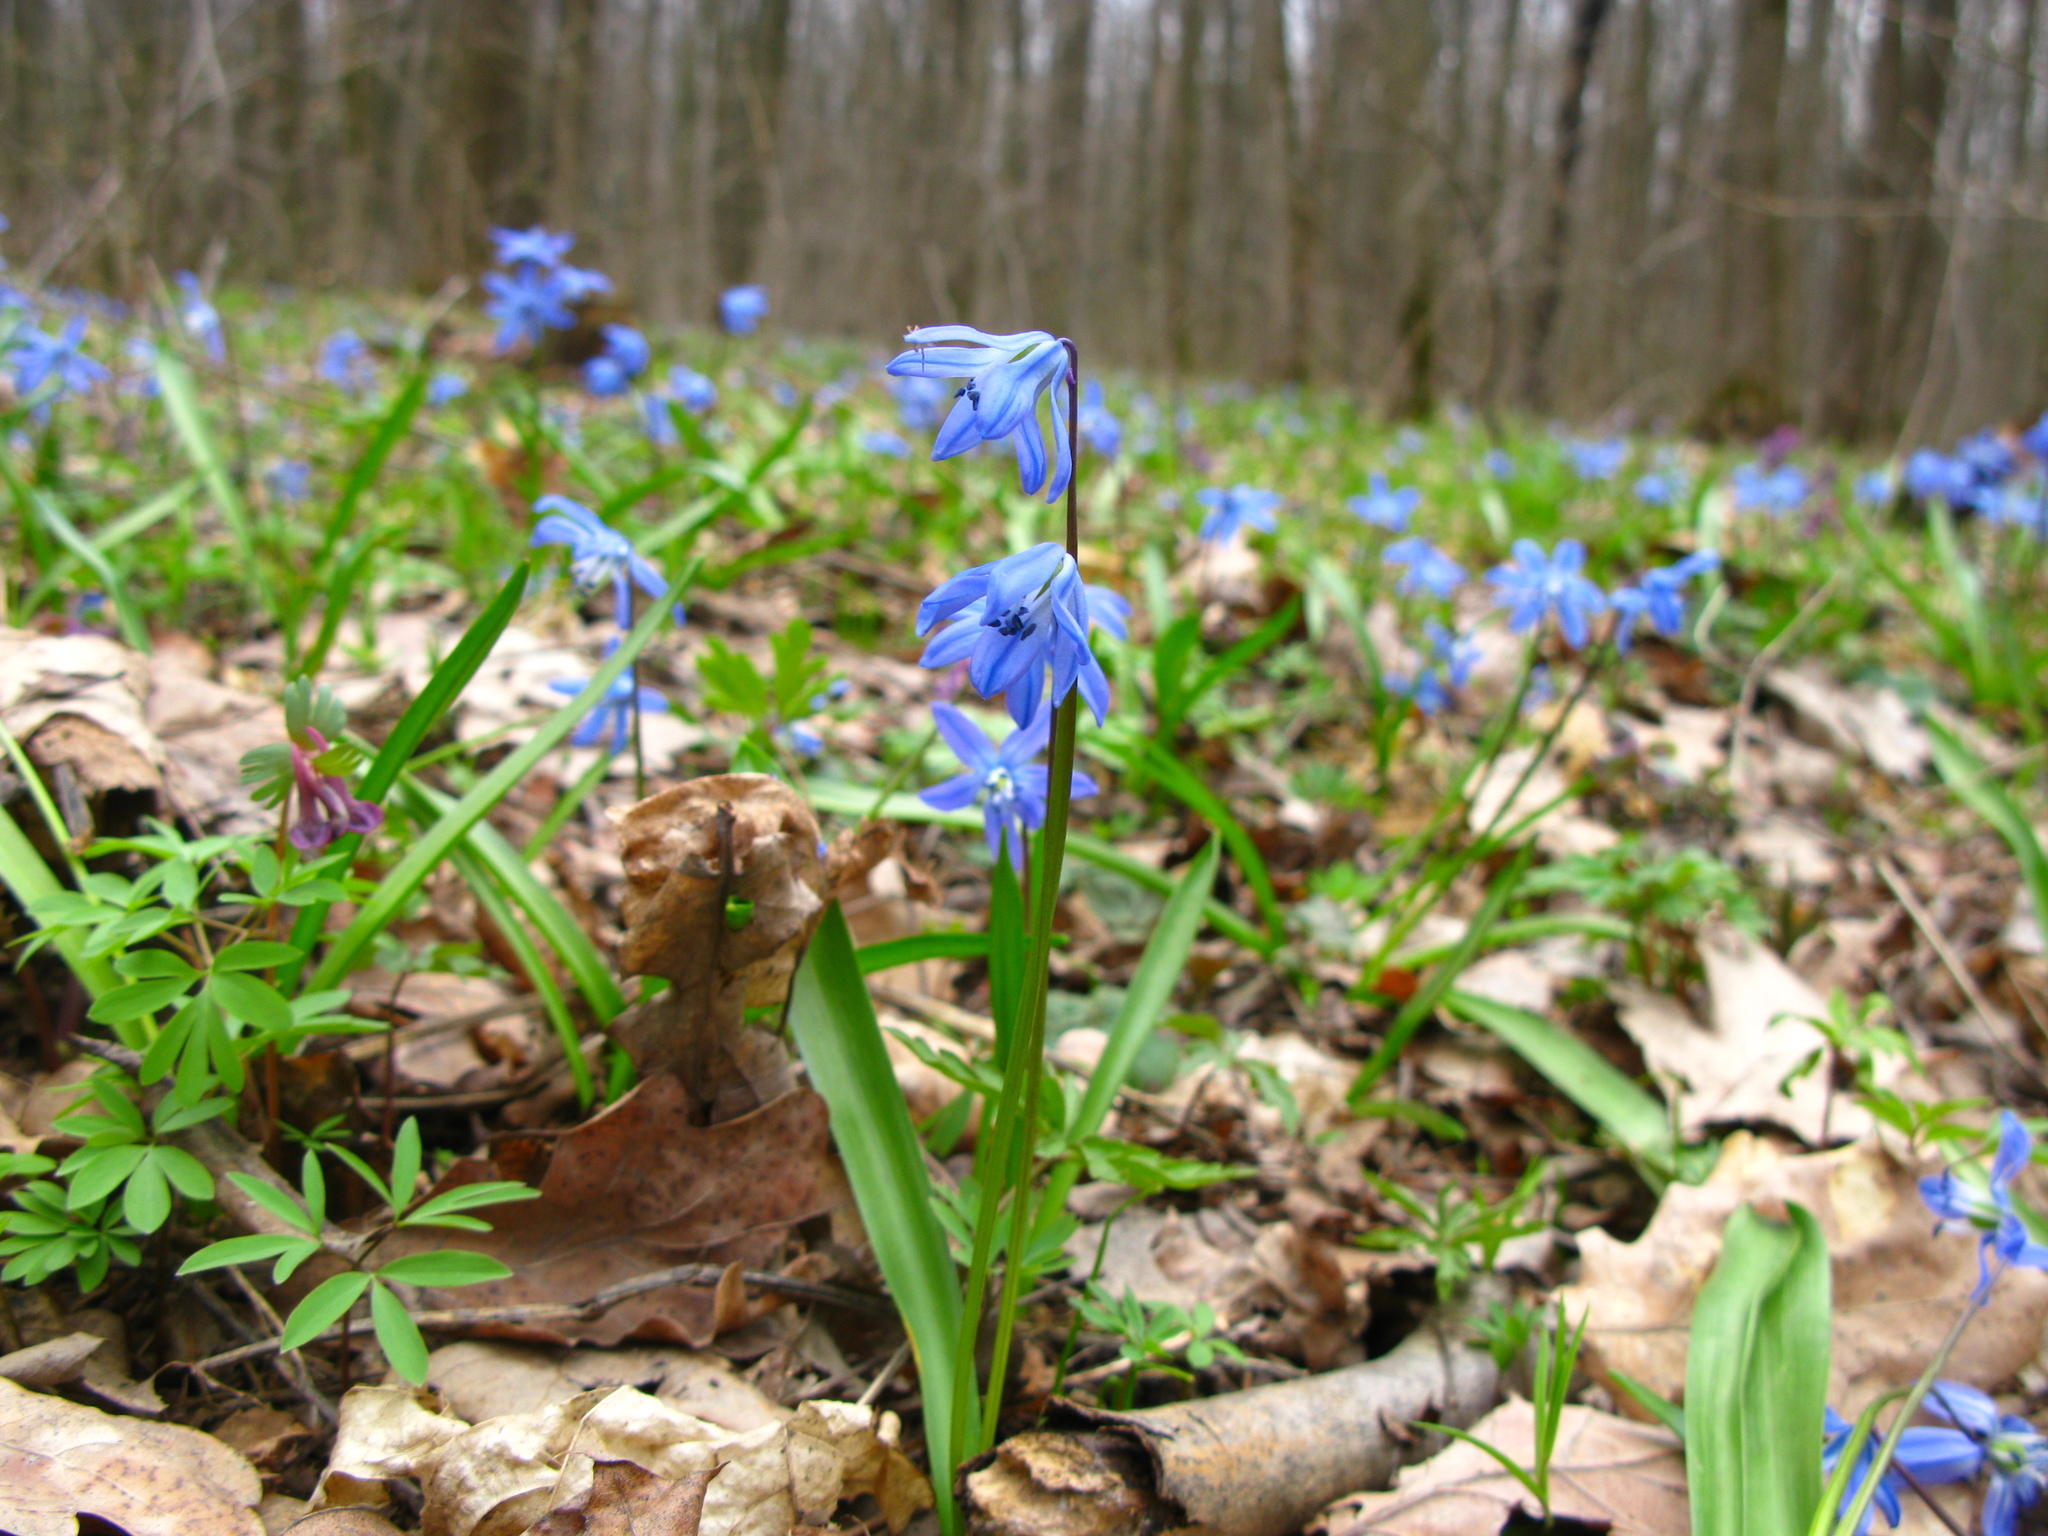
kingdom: Plantae
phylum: Tracheophyta
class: Liliopsida
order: Asparagales
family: Asparagaceae
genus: Scilla
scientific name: Scilla siberica
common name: Siberian squill
